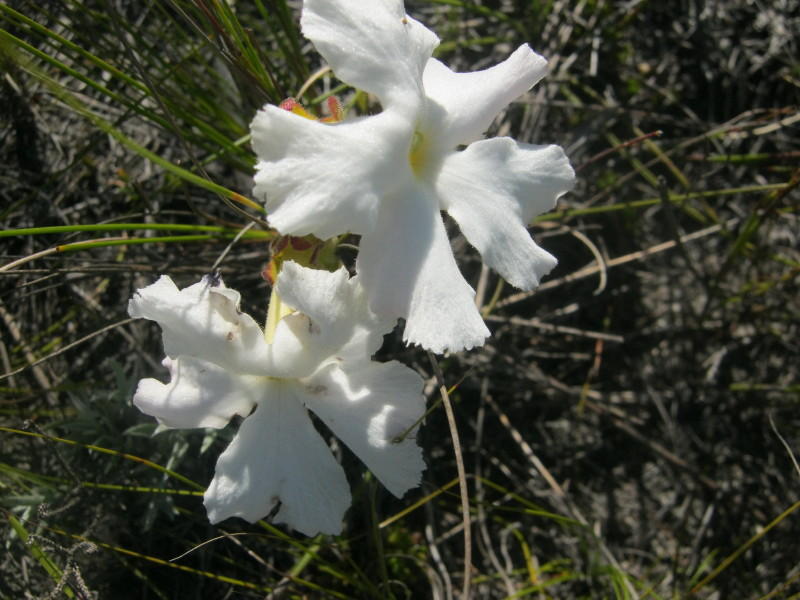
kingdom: Plantae
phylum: Tracheophyta
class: Magnoliopsida
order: Lamiales
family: Orobanchaceae
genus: Harveya
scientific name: Harveya capensis
